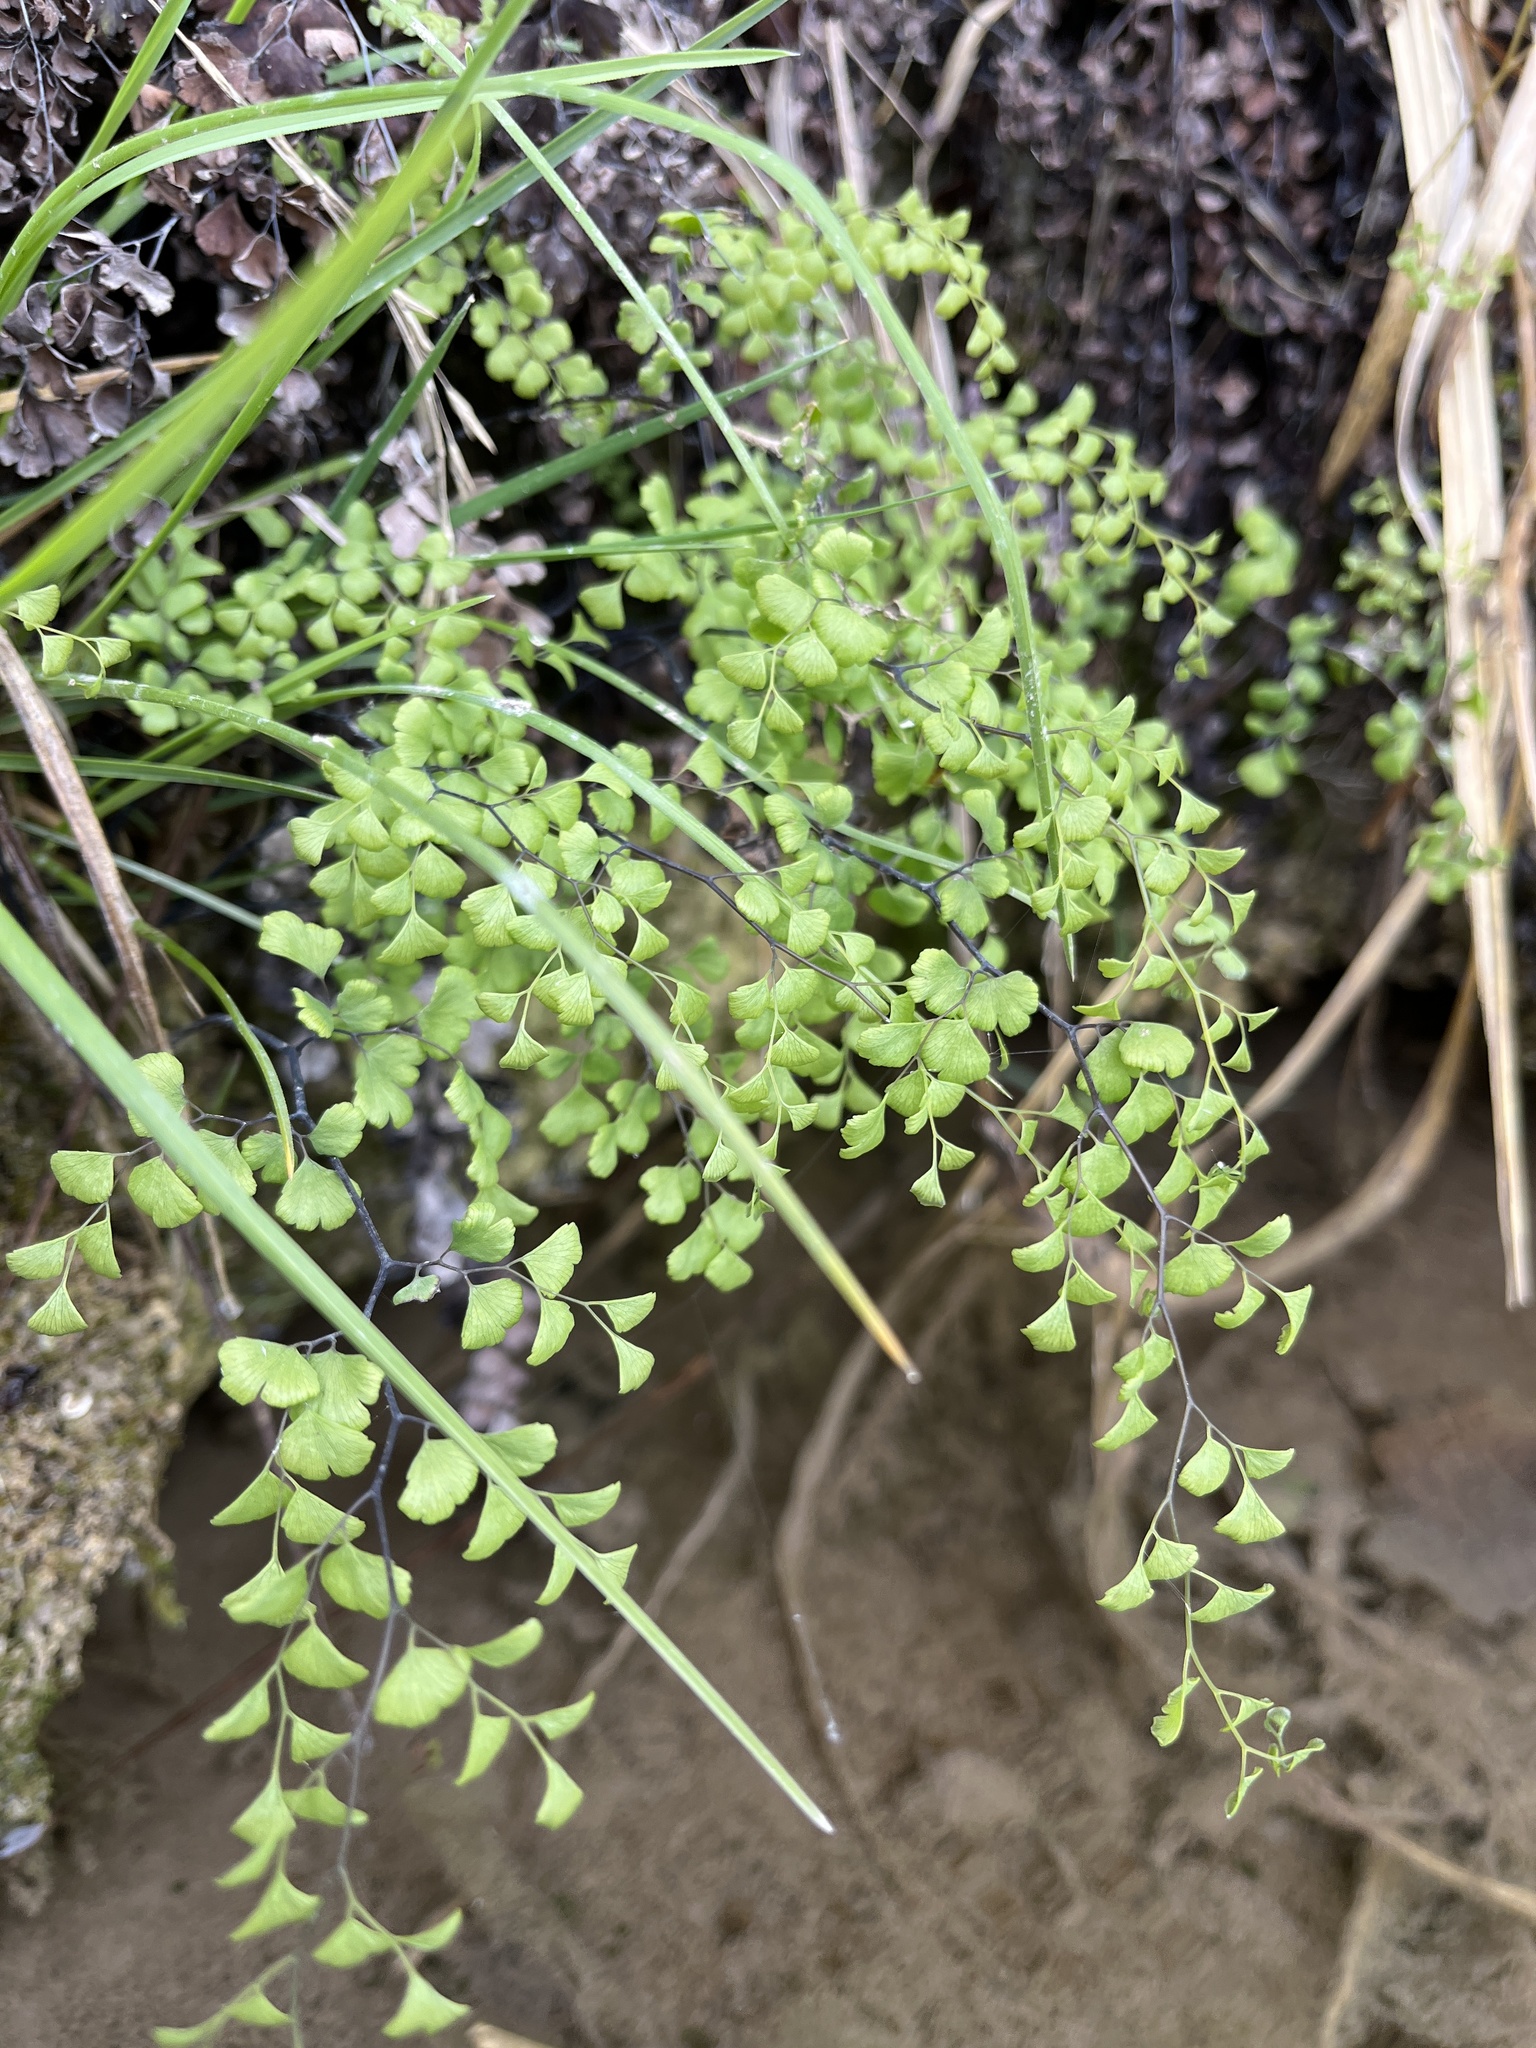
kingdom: Plantae
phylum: Tracheophyta
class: Polypodiopsida
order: Polypodiales
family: Pteridaceae
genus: Adiantum
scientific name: Adiantum capillus-veneris
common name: Maidenhair fern
